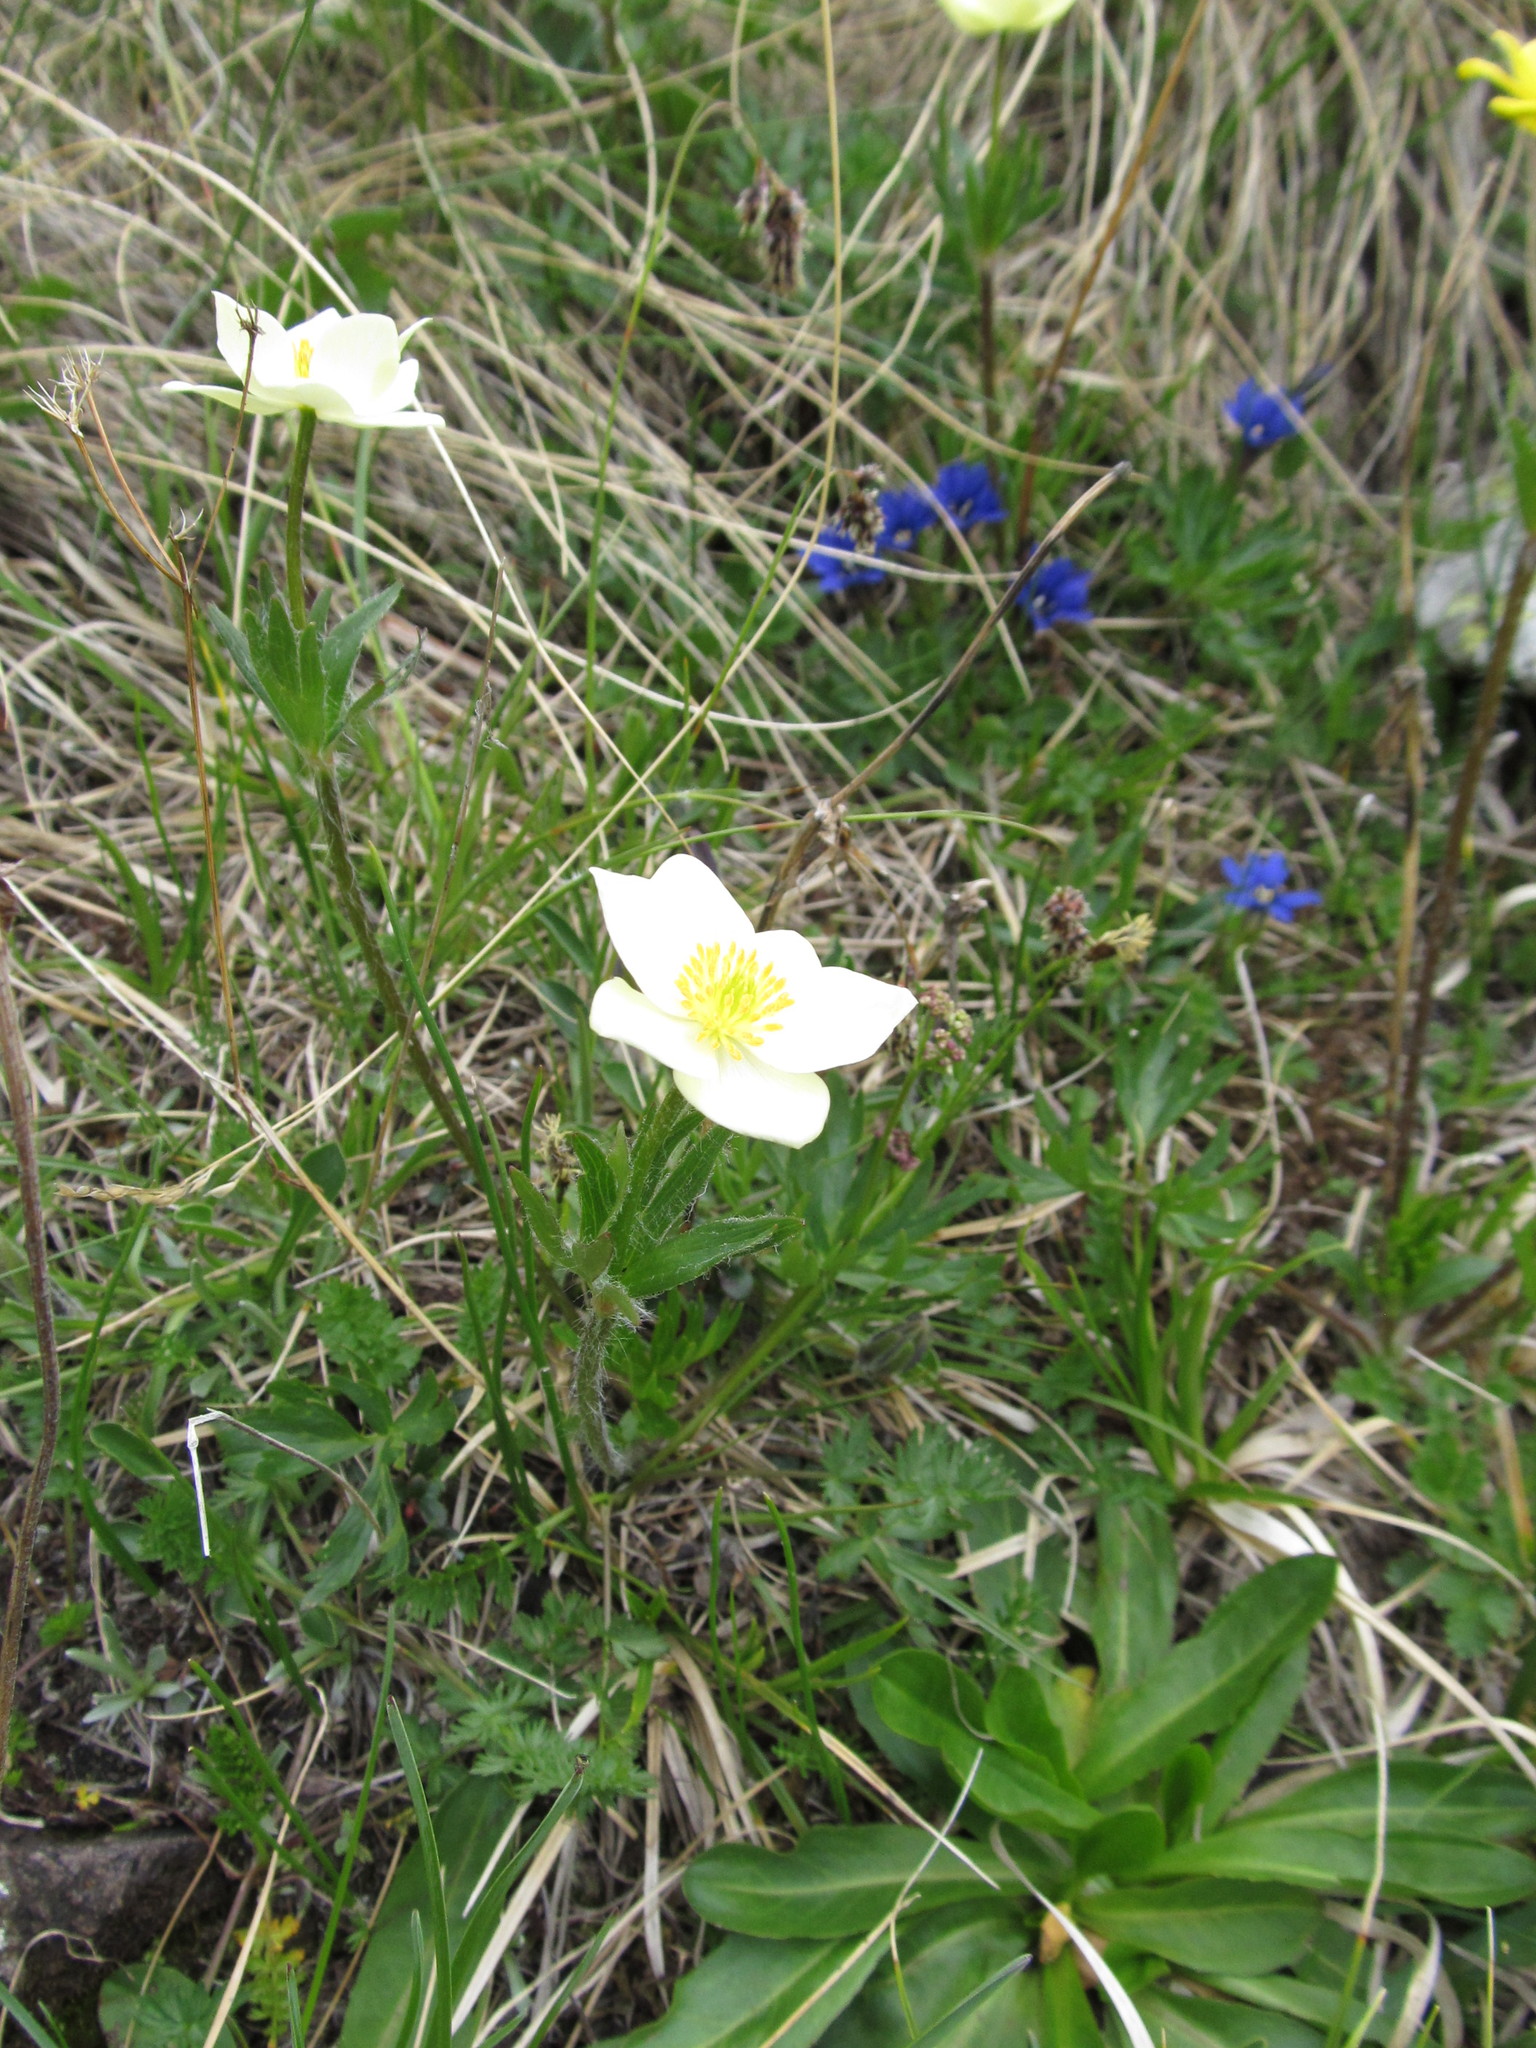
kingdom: Plantae
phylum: Tracheophyta
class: Magnoliopsida
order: Ranunculales
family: Ranunculaceae
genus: Anemonastrum
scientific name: Anemonastrum narcissiflorum
